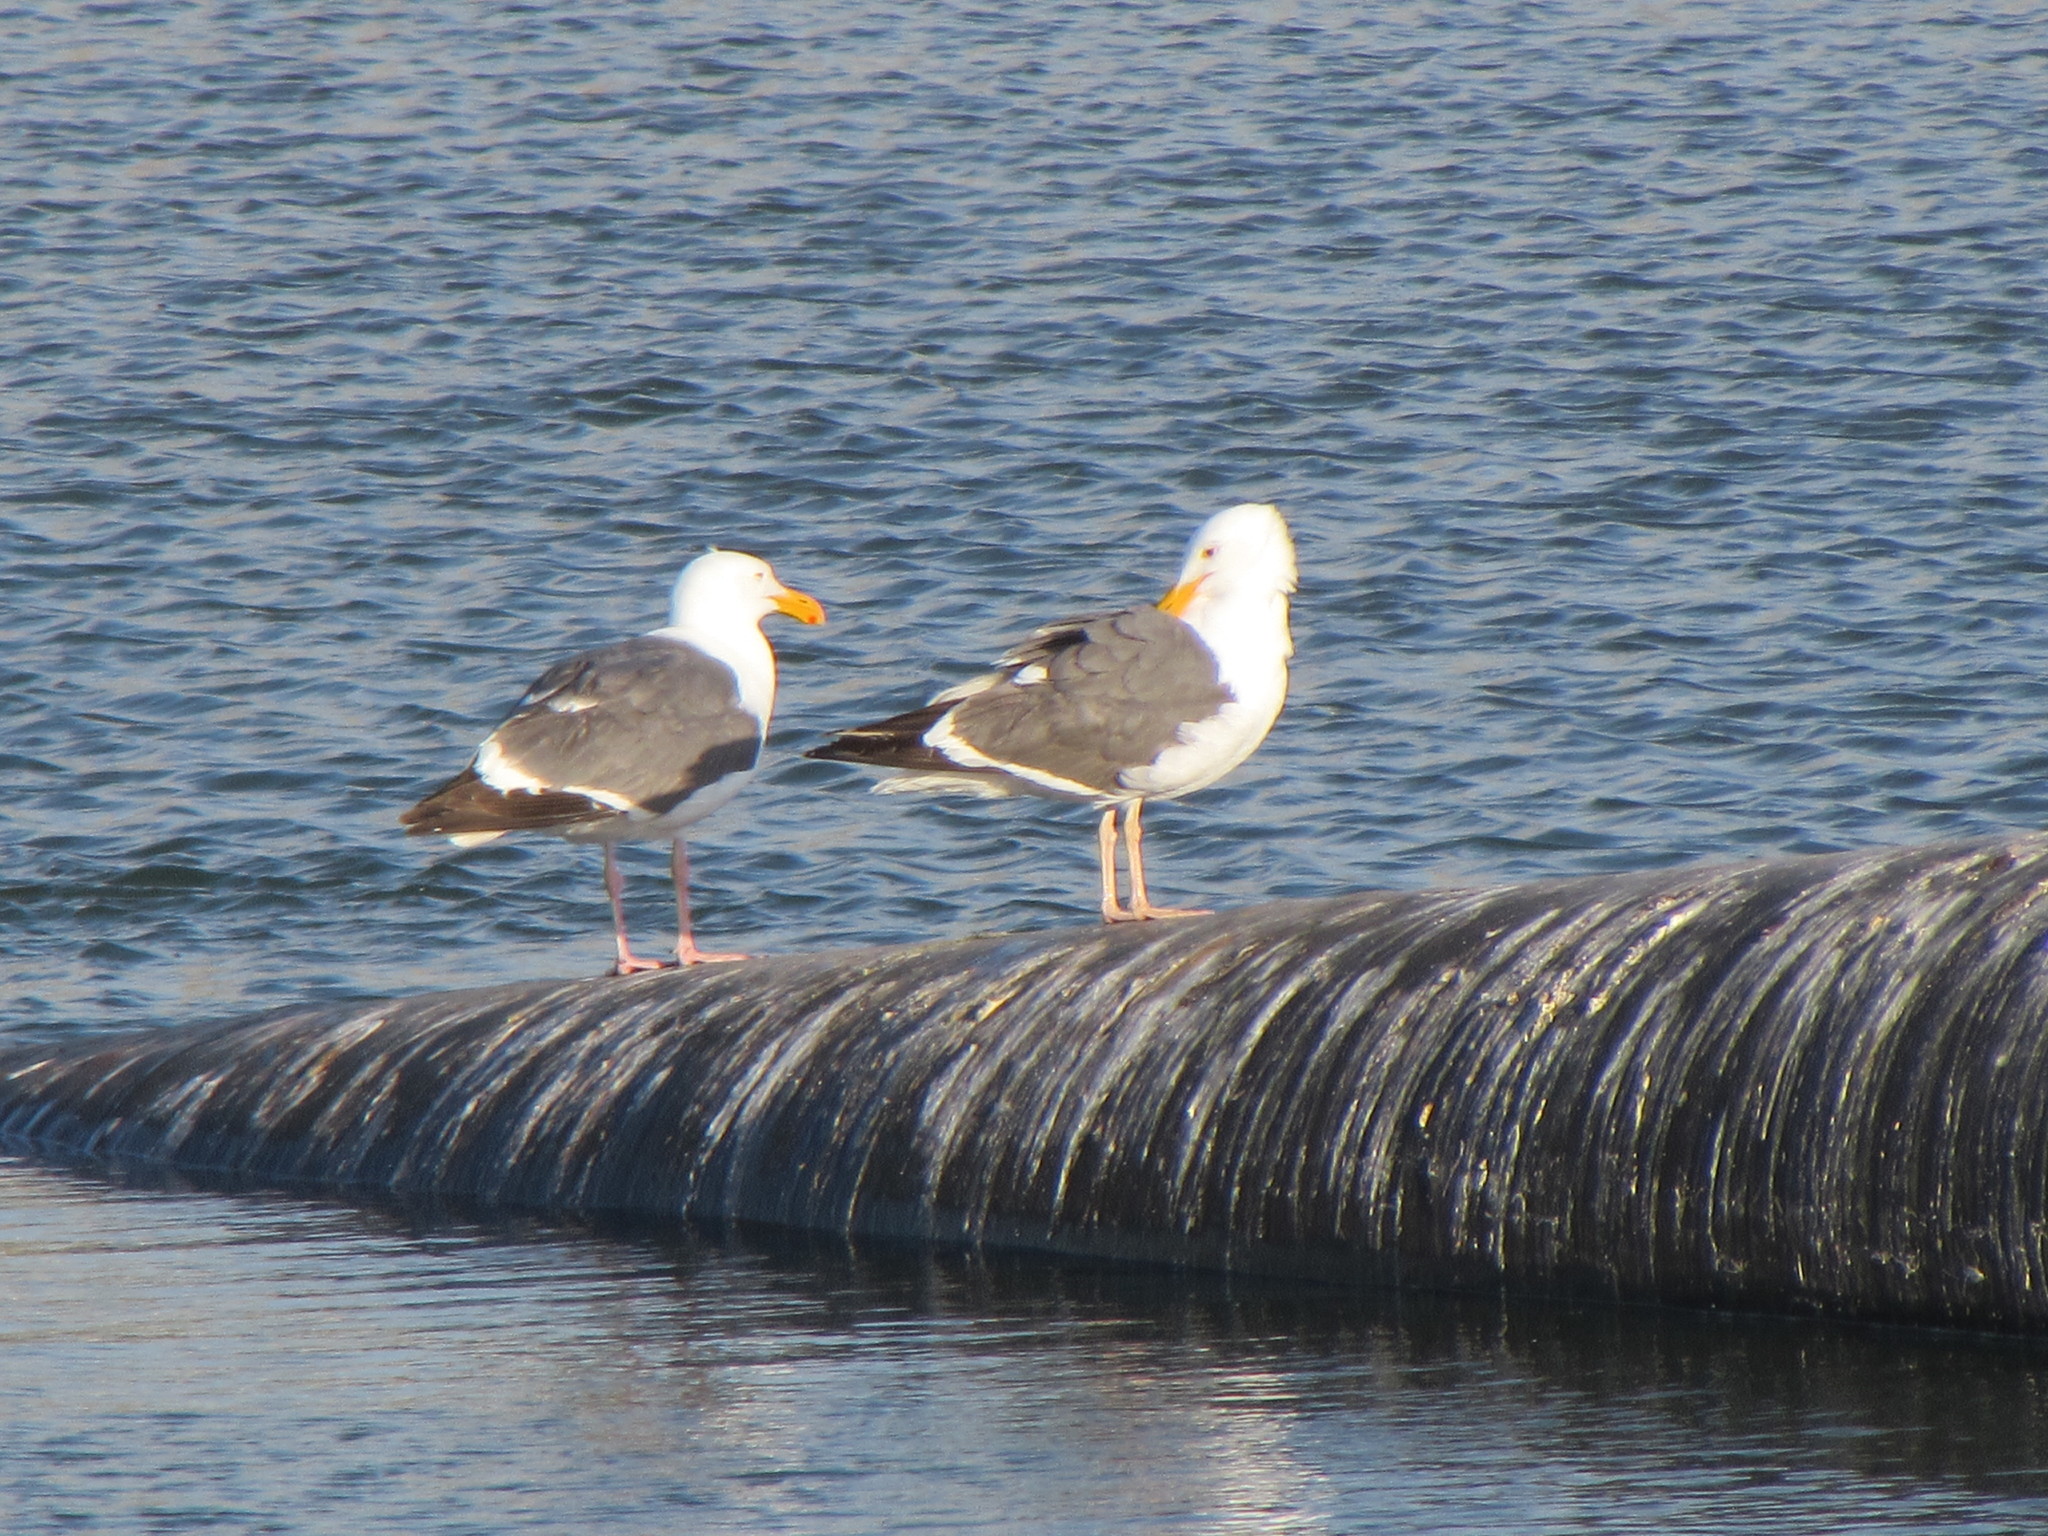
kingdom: Animalia
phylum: Chordata
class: Aves
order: Charadriiformes
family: Laridae
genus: Larus
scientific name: Larus occidentalis
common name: Western gull
